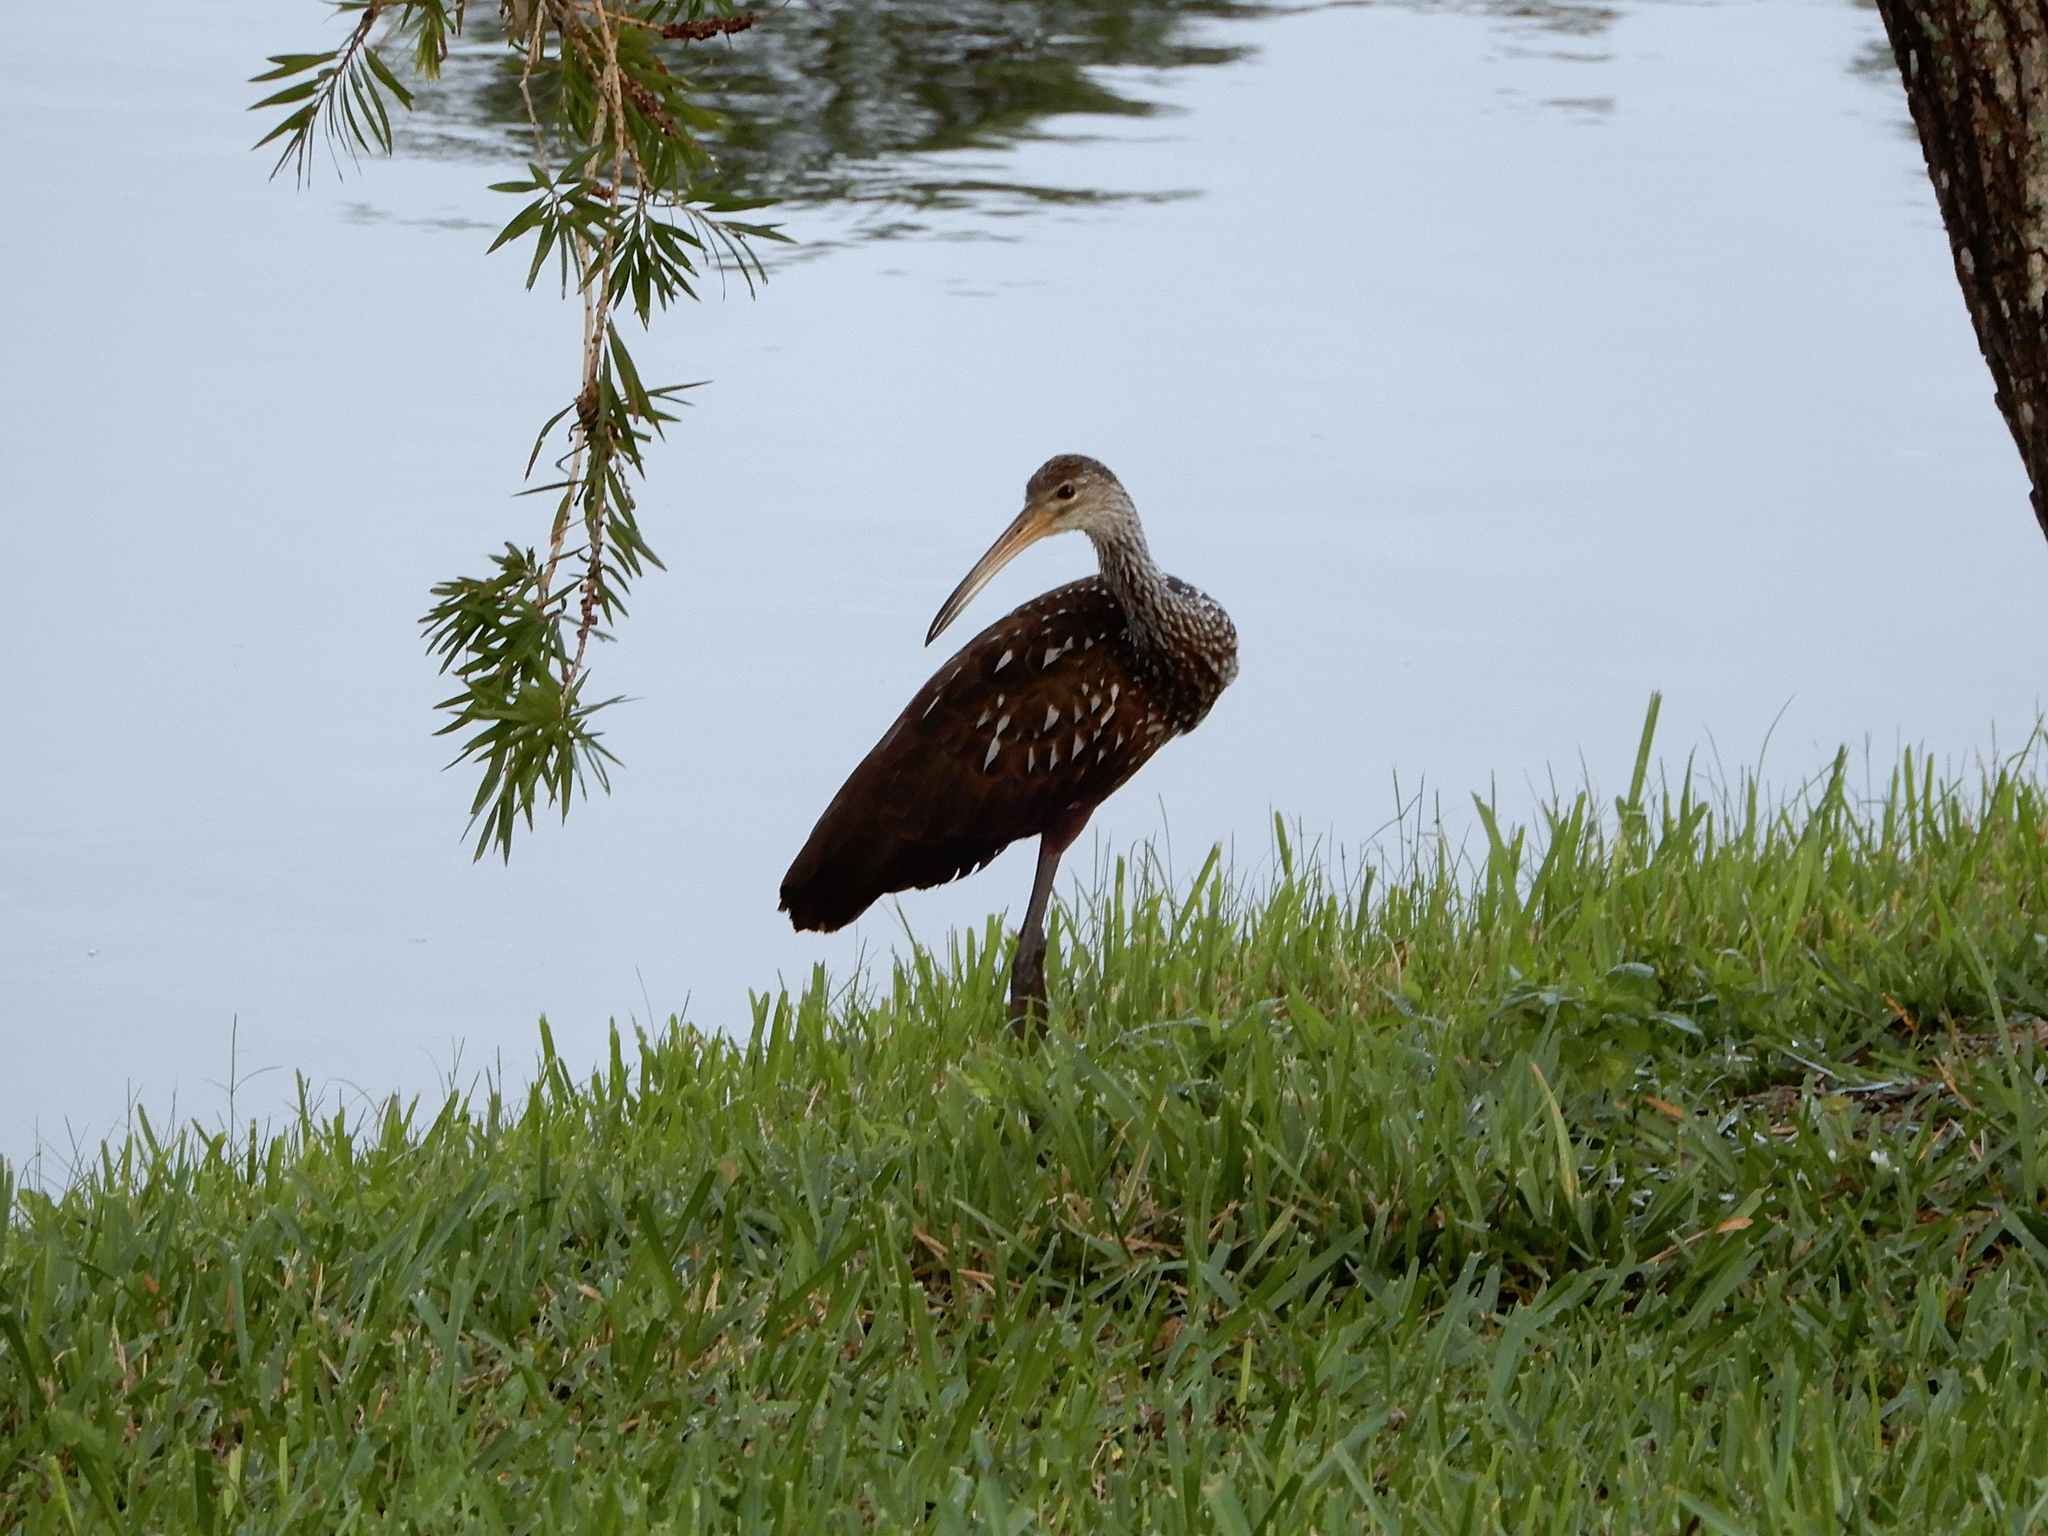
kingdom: Animalia
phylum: Chordata
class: Aves
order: Gruiformes
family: Aramidae
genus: Aramus
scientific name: Aramus guarauna
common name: Limpkin
